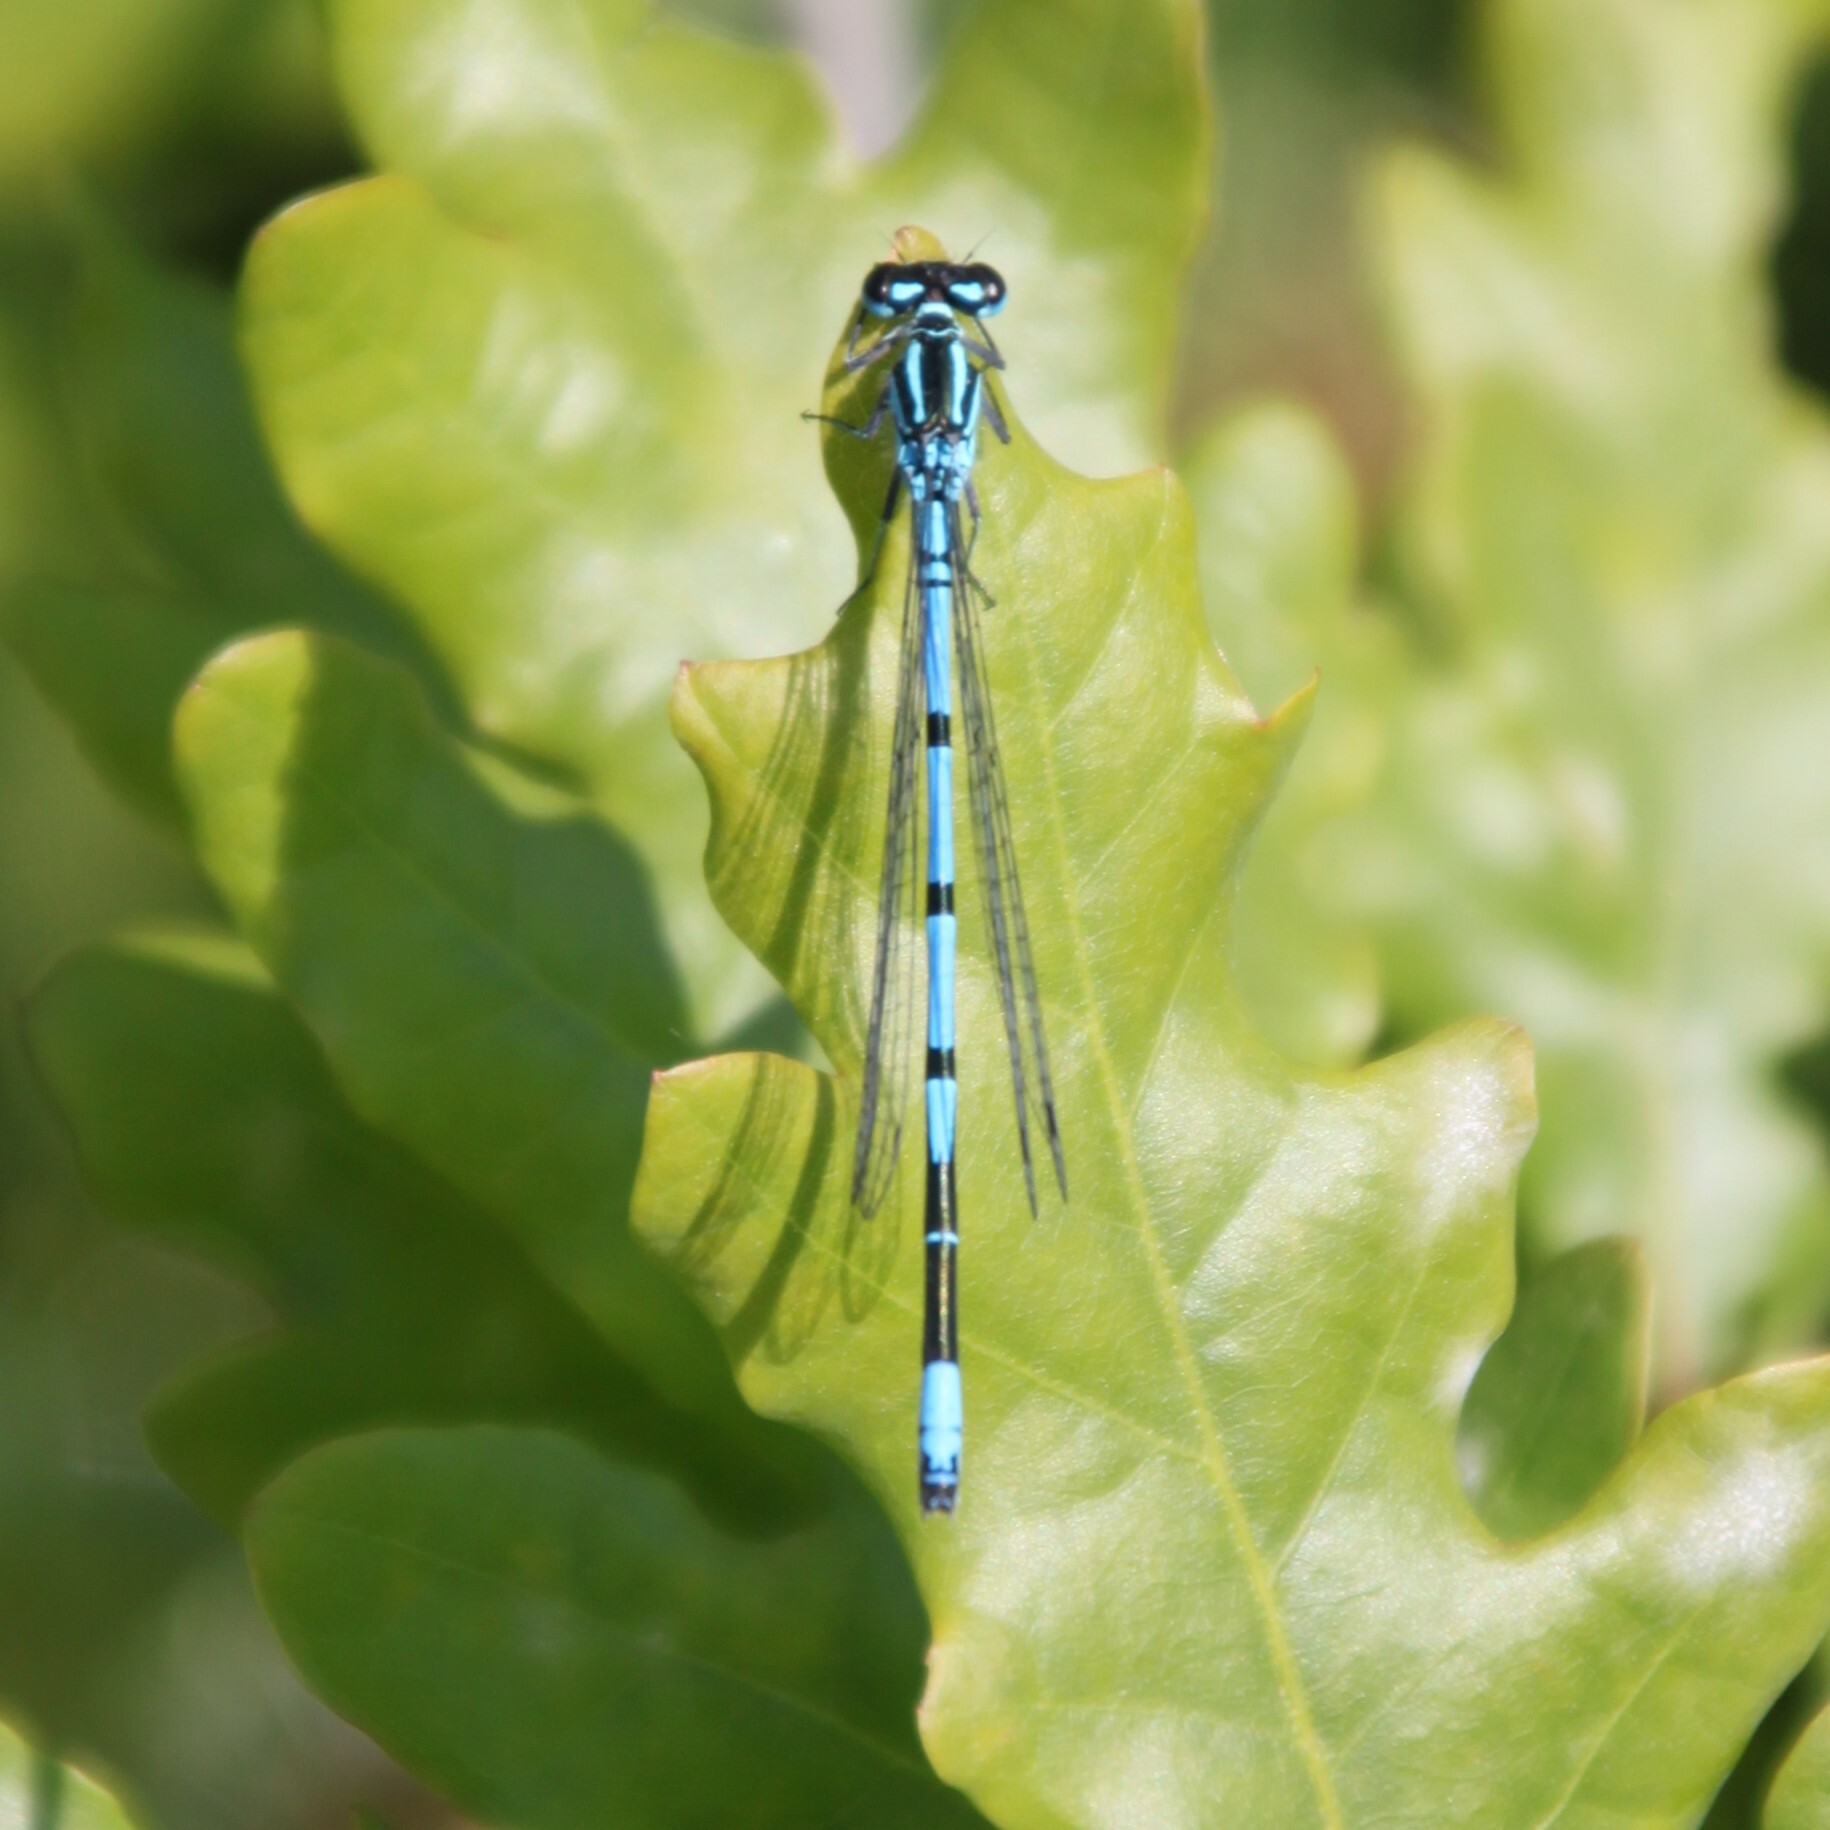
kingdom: Animalia
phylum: Arthropoda
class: Insecta
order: Odonata
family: Coenagrionidae
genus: Coenagrion
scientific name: Coenagrion puella
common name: Azure damselfly
